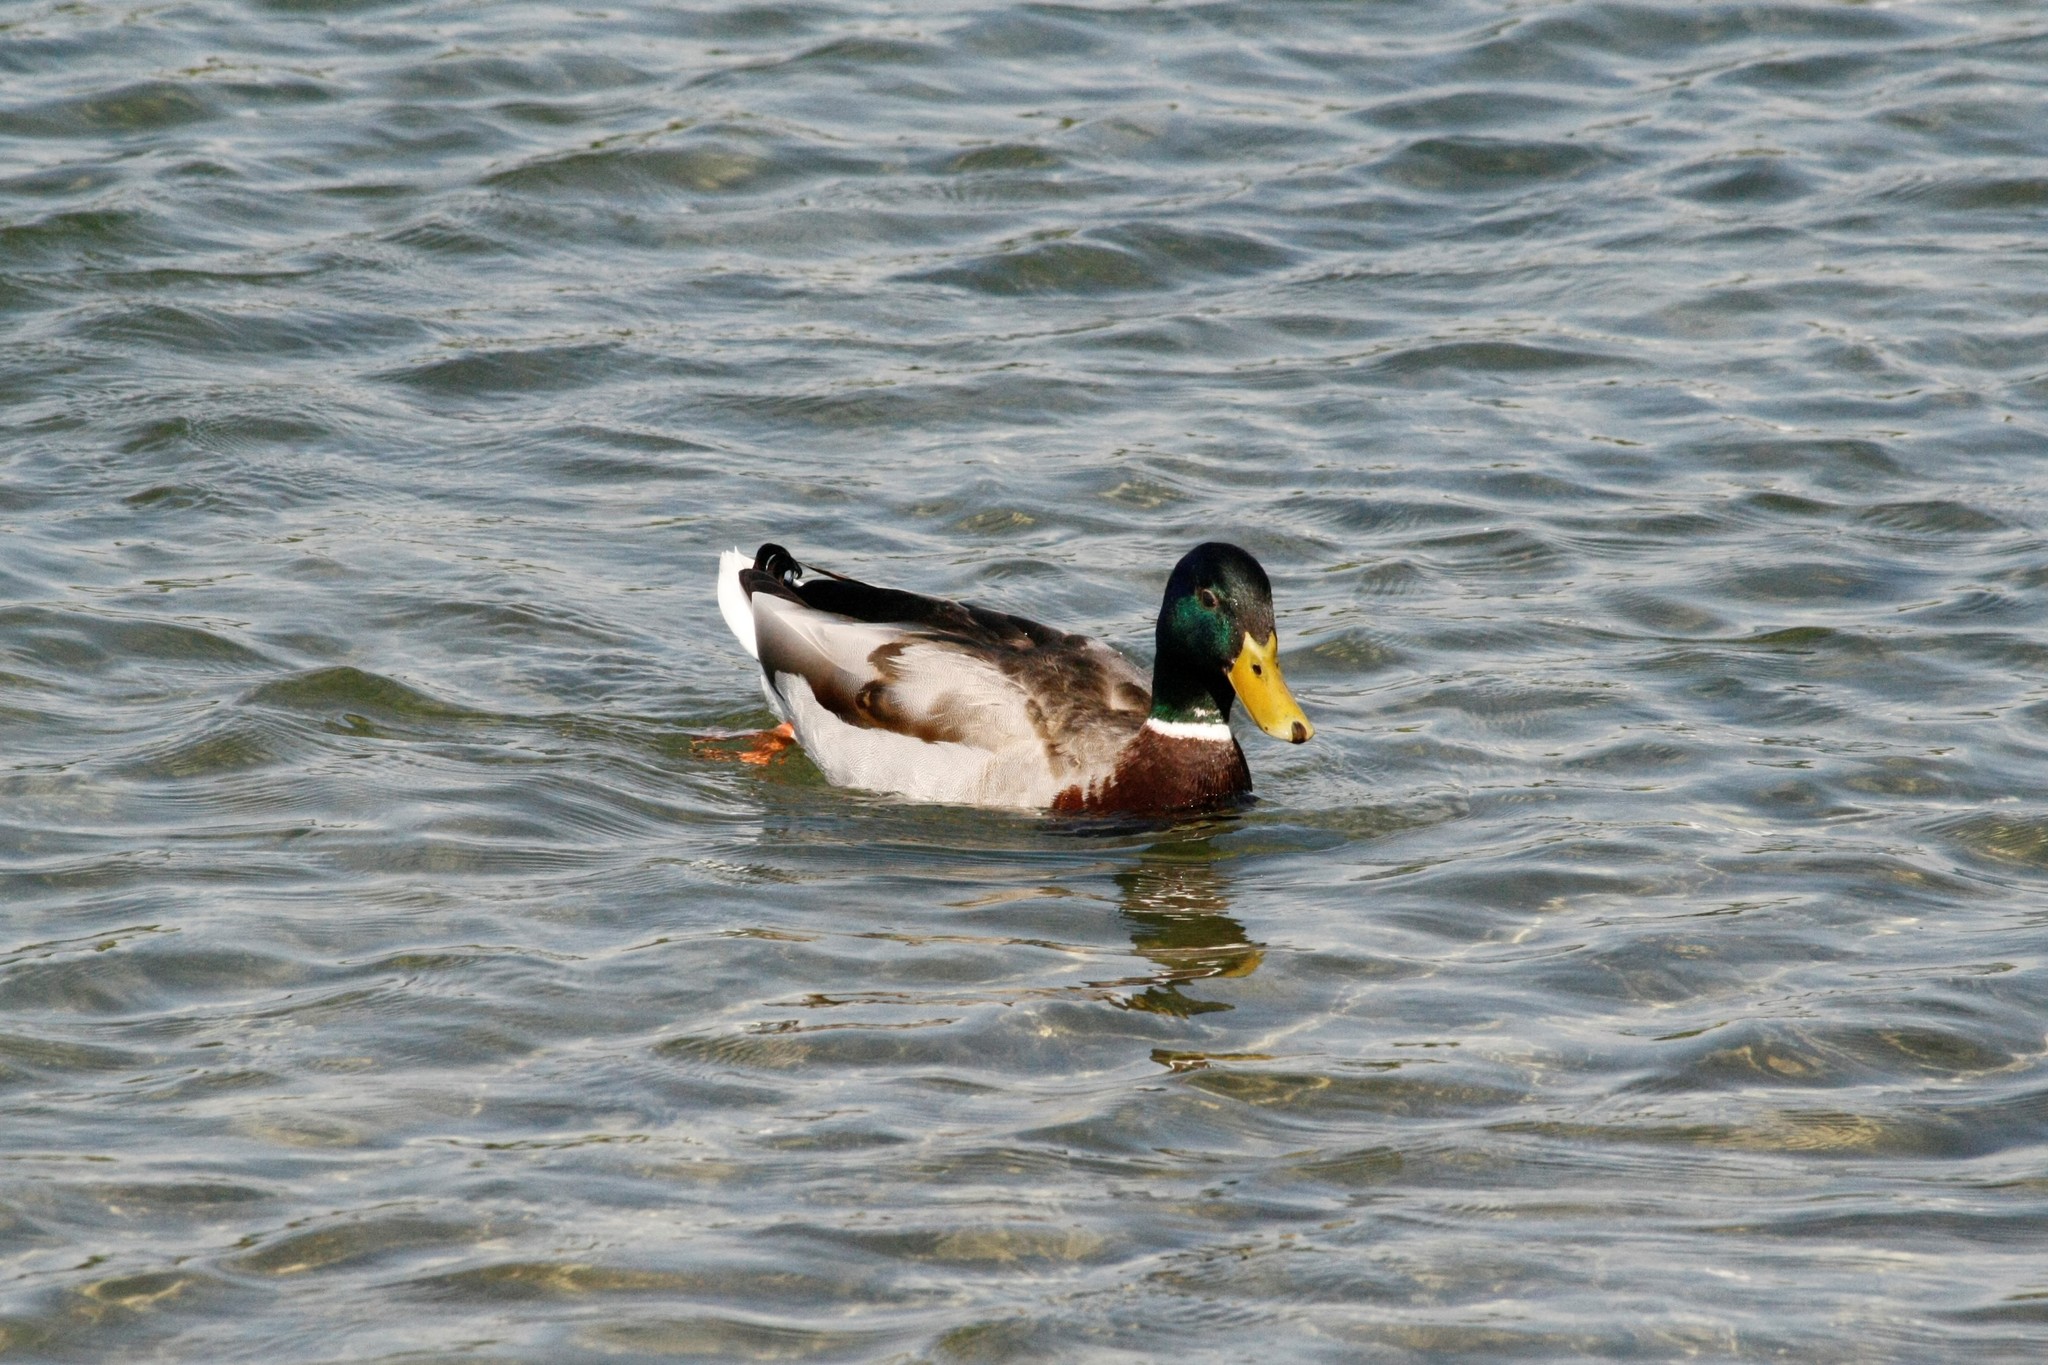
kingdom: Animalia
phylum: Chordata
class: Aves
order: Anseriformes
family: Anatidae
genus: Anas
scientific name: Anas platyrhynchos
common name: Mallard
